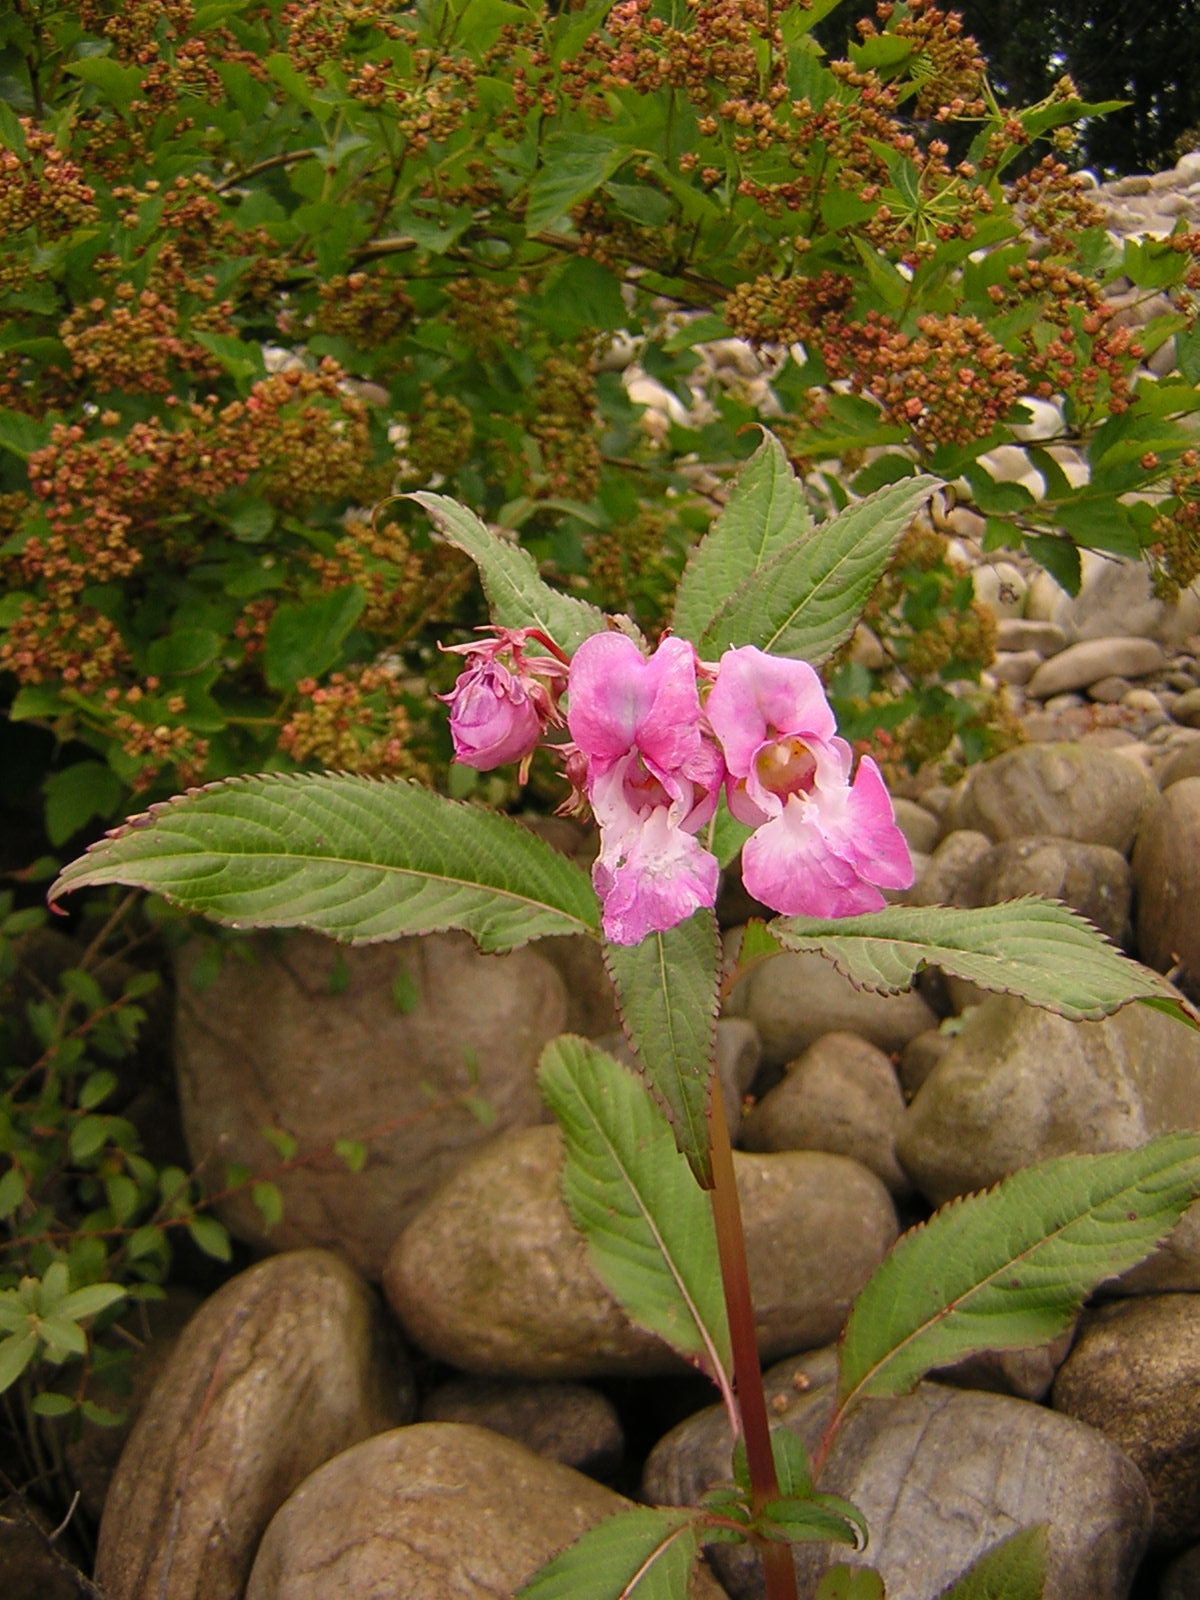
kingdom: Plantae
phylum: Tracheophyta
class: Magnoliopsida
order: Ericales
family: Balsaminaceae
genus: Impatiens
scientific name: Impatiens glandulifera
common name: Himalayan balsam
